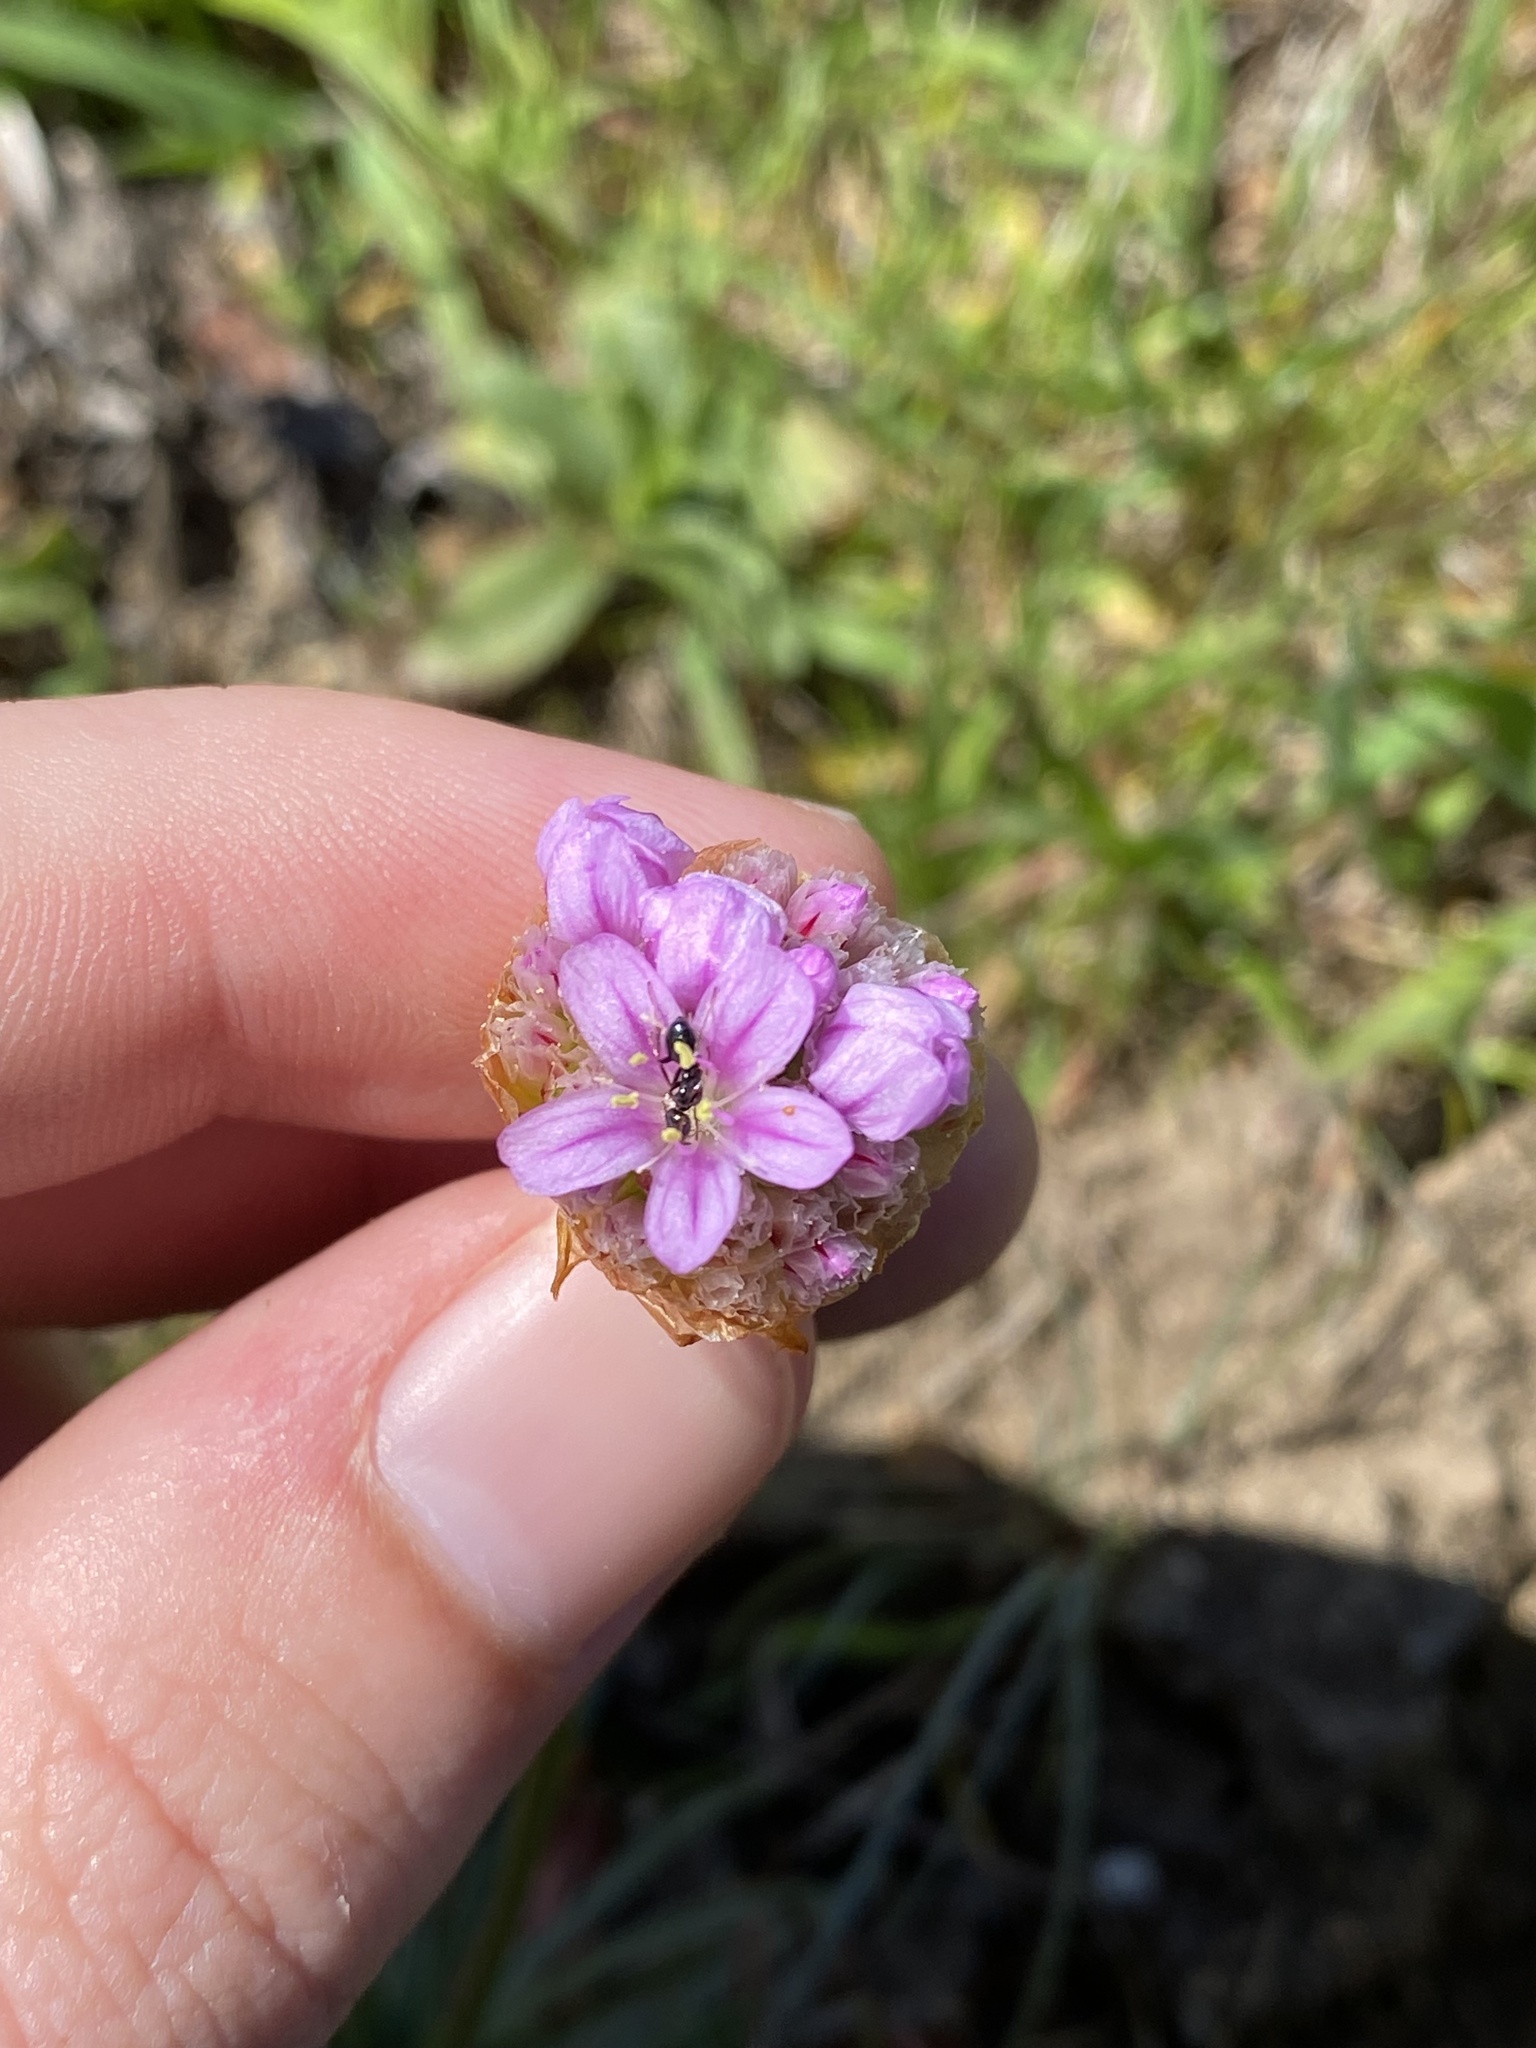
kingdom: Plantae
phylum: Tracheophyta
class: Magnoliopsida
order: Caryophyllales
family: Plumbaginaceae
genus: Armeria
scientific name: Armeria maritima
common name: Thrift
